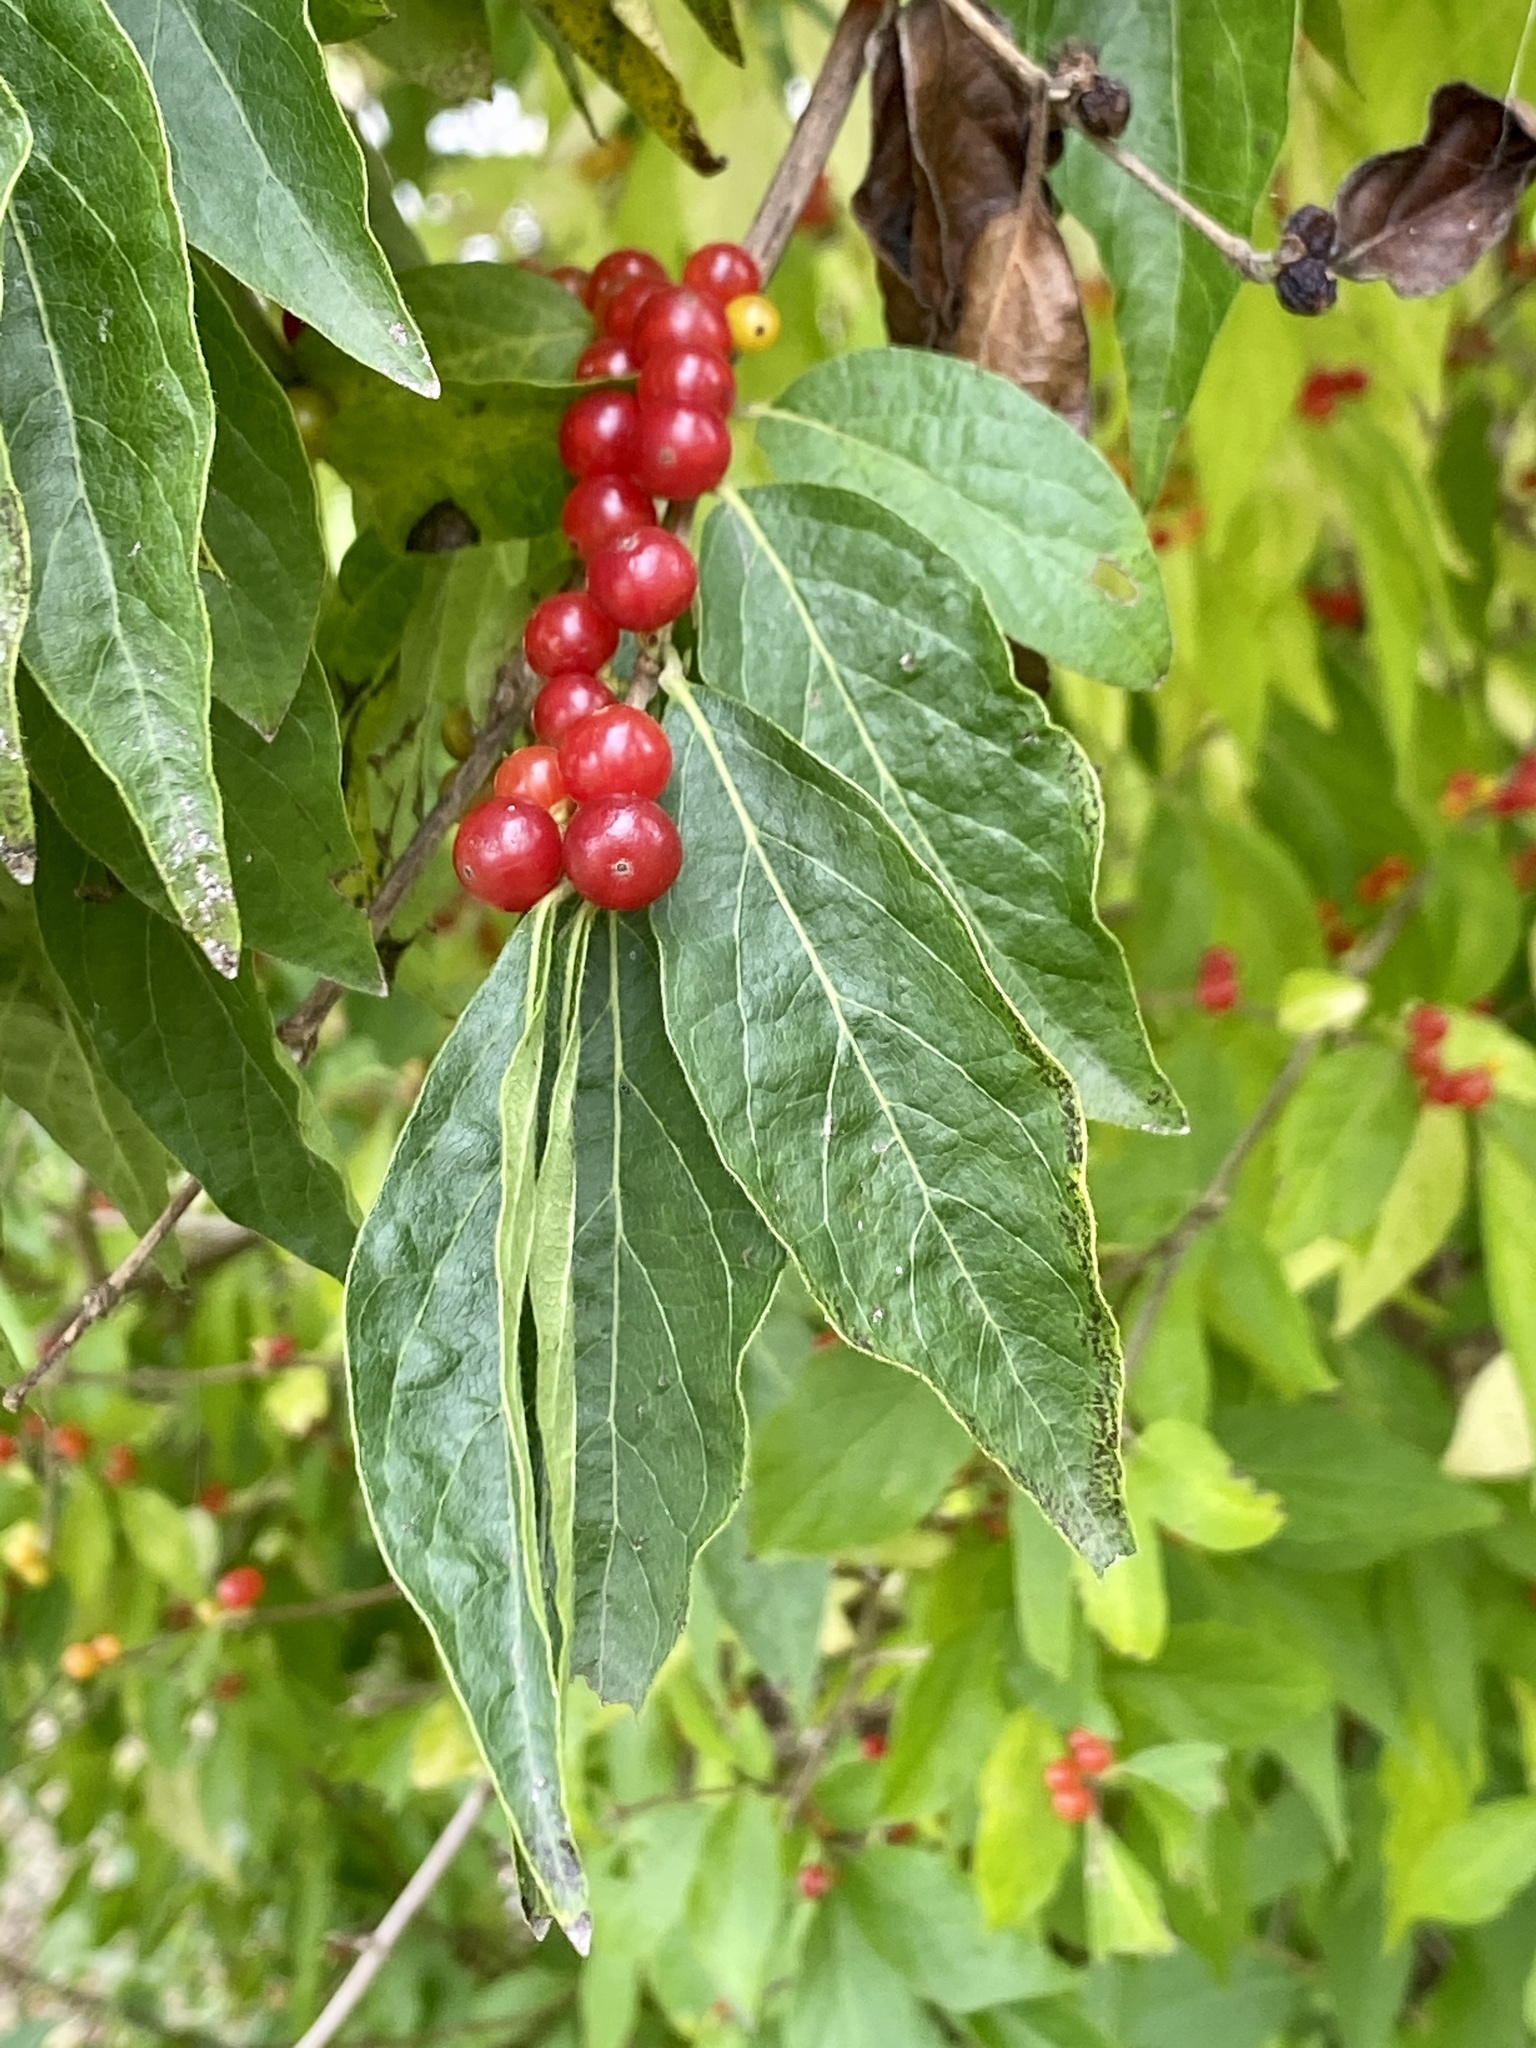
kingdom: Plantae
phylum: Tracheophyta
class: Magnoliopsida
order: Dipsacales
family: Caprifoliaceae
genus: Lonicera
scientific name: Lonicera maackii
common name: Amur honeysuckle
